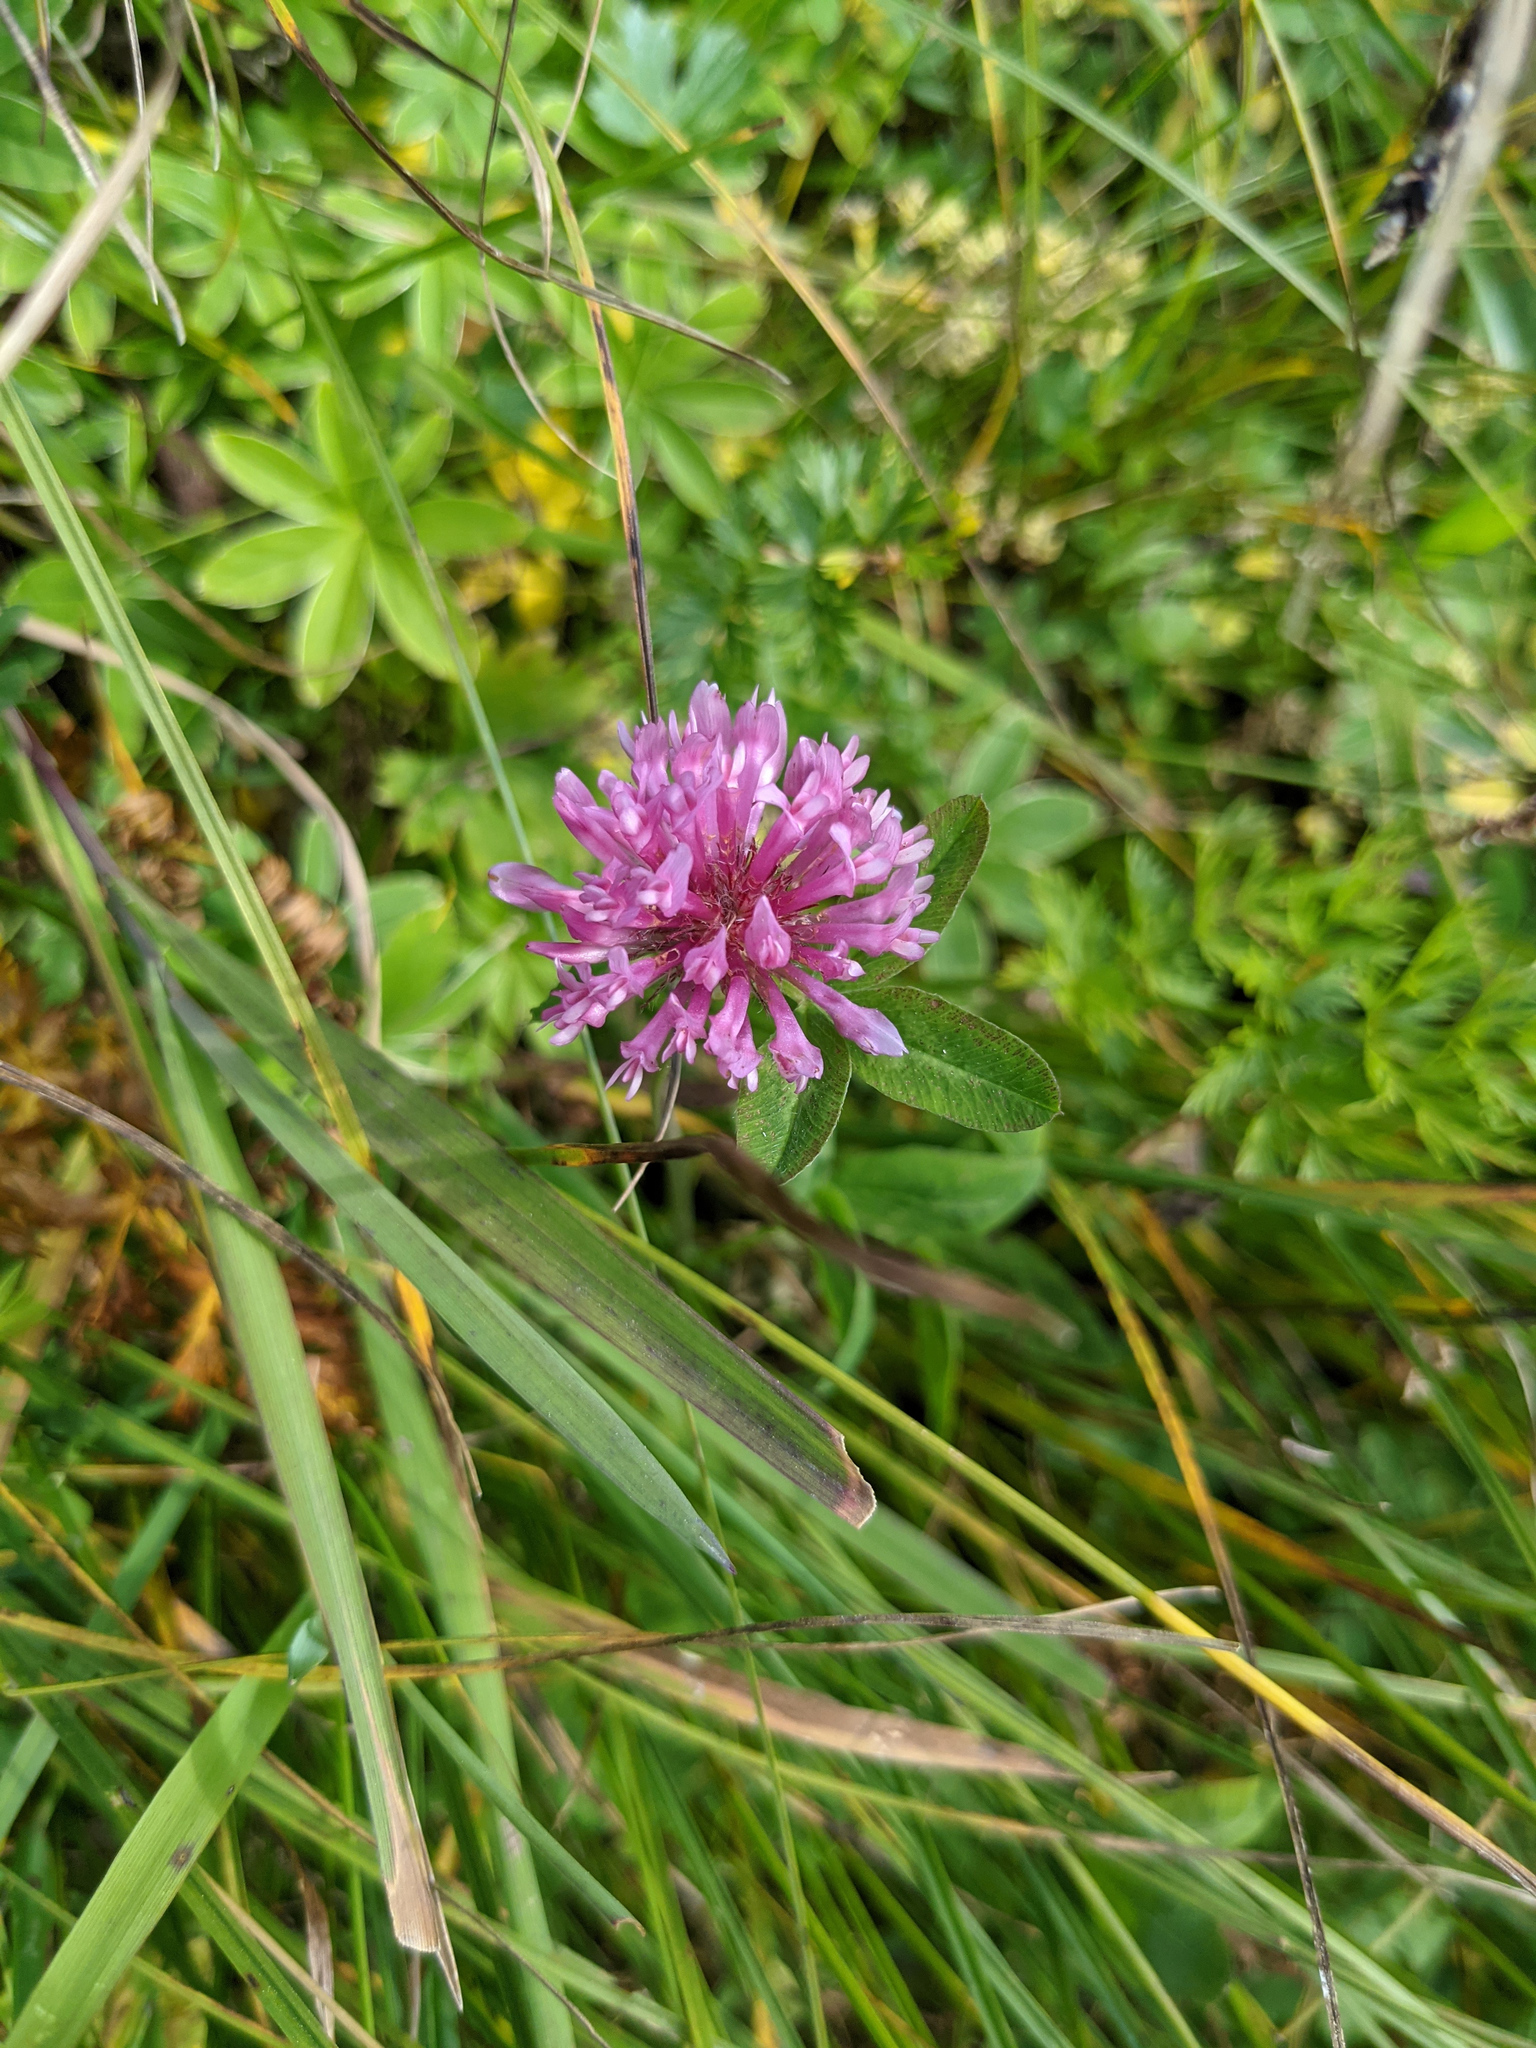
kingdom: Plantae
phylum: Tracheophyta
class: Magnoliopsida
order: Fabales
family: Fabaceae
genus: Trifolium
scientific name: Trifolium pratense
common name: Red clover
